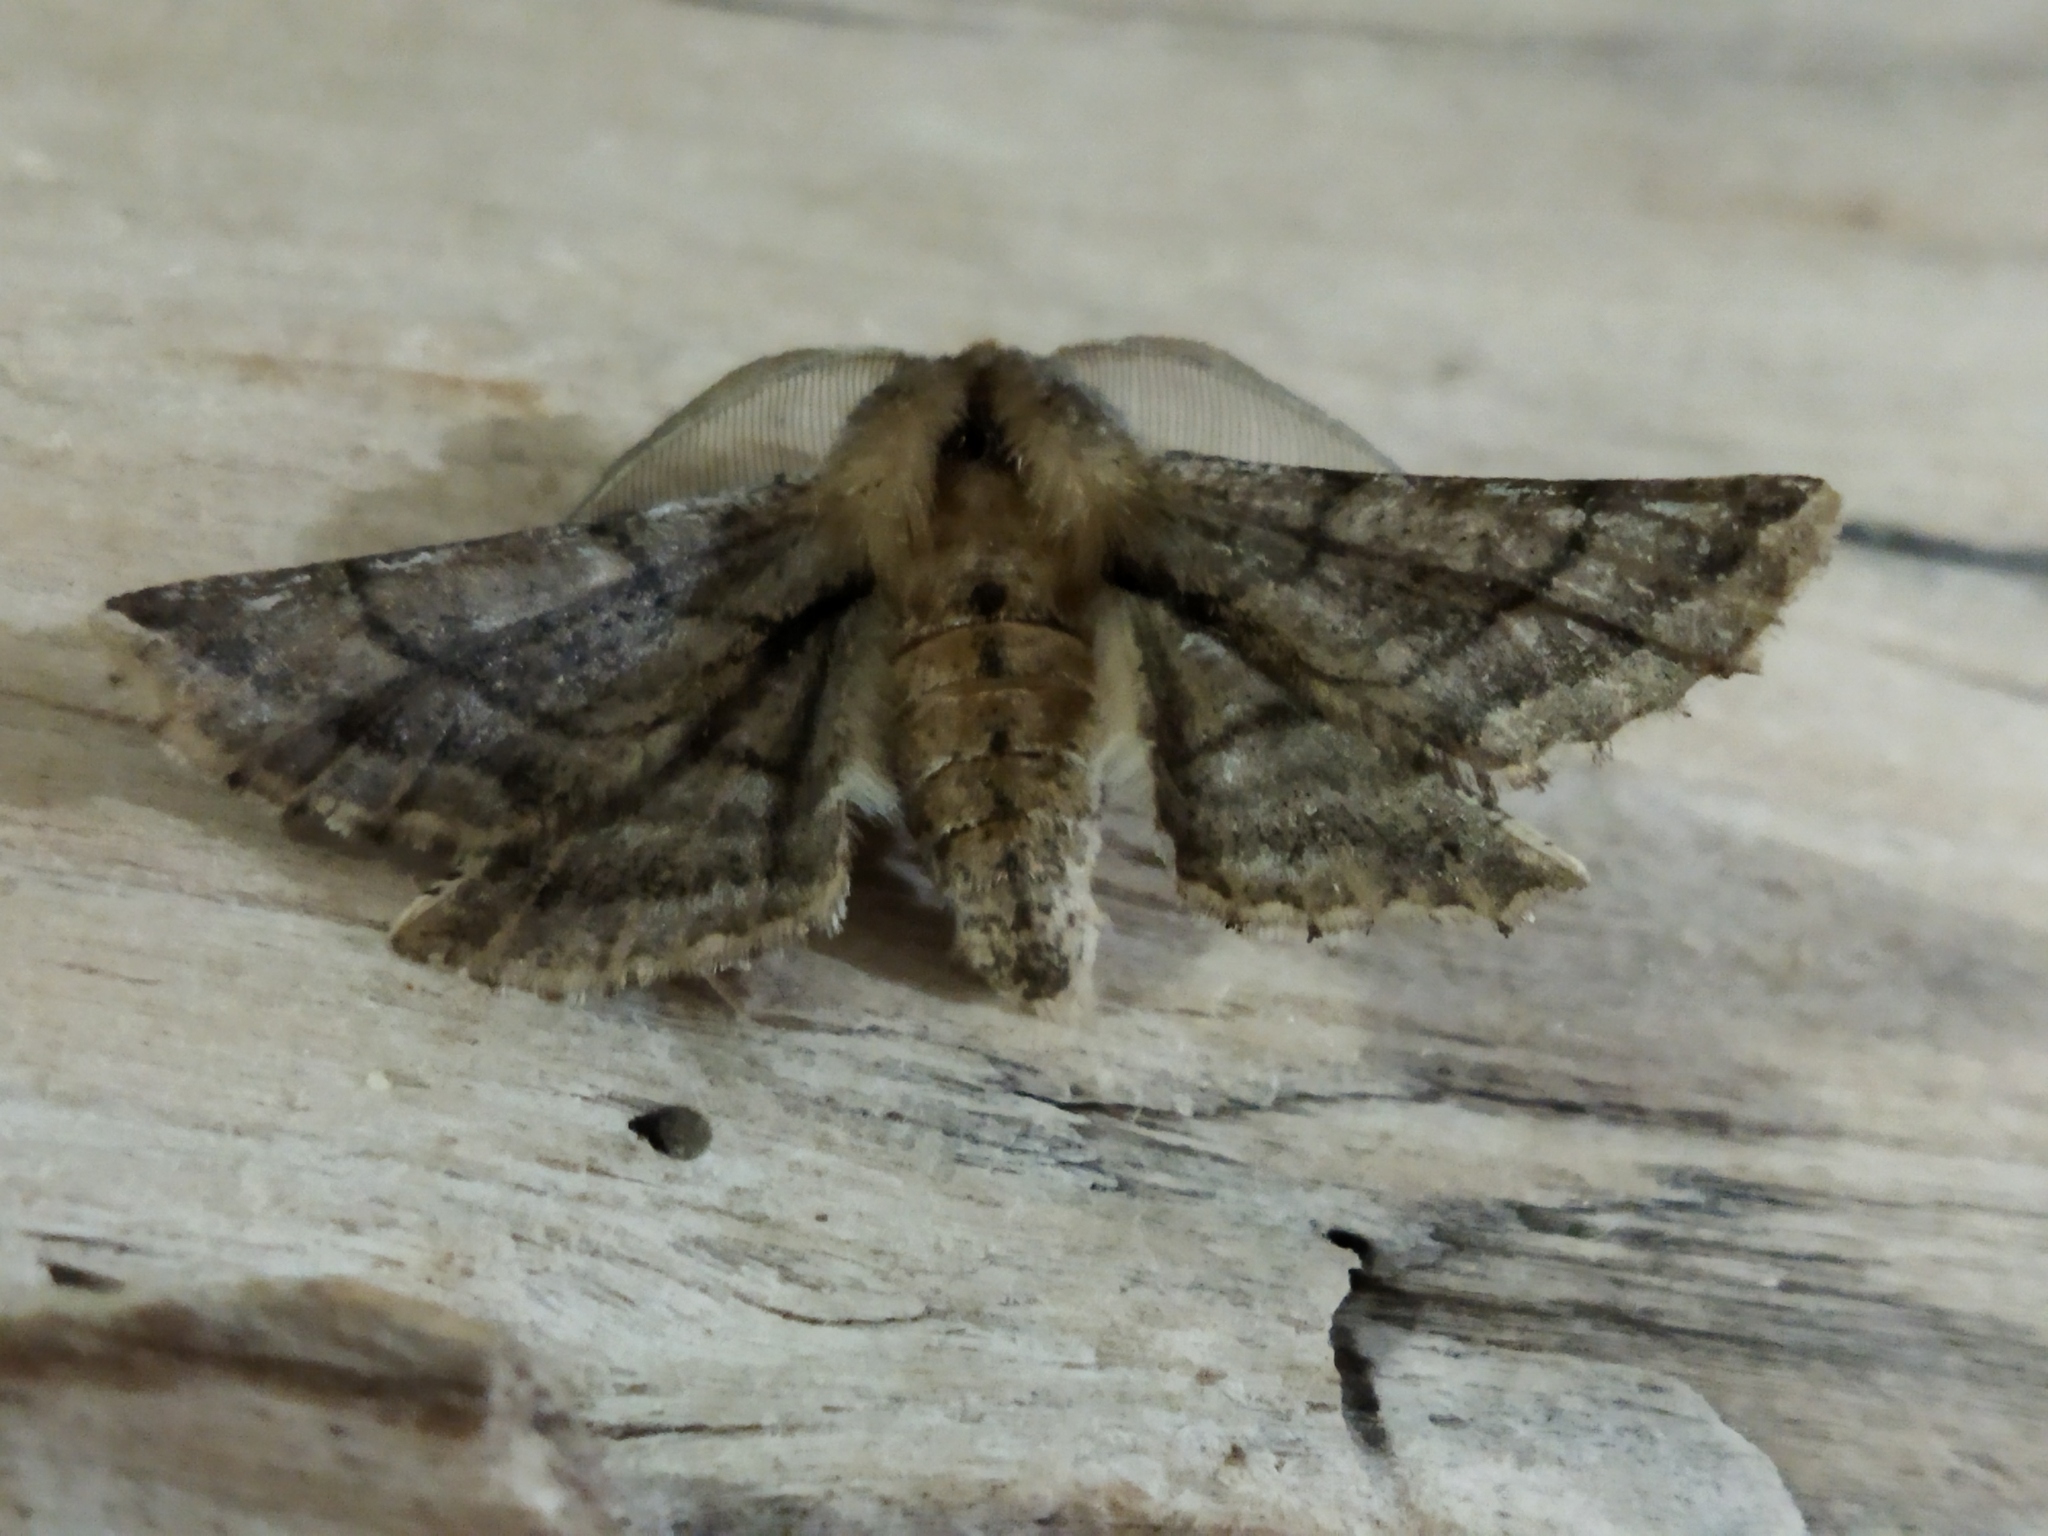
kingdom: Animalia
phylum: Arthropoda
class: Insecta
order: Lepidoptera
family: Geometridae
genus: Apochima
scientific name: Apochima flabellaria
